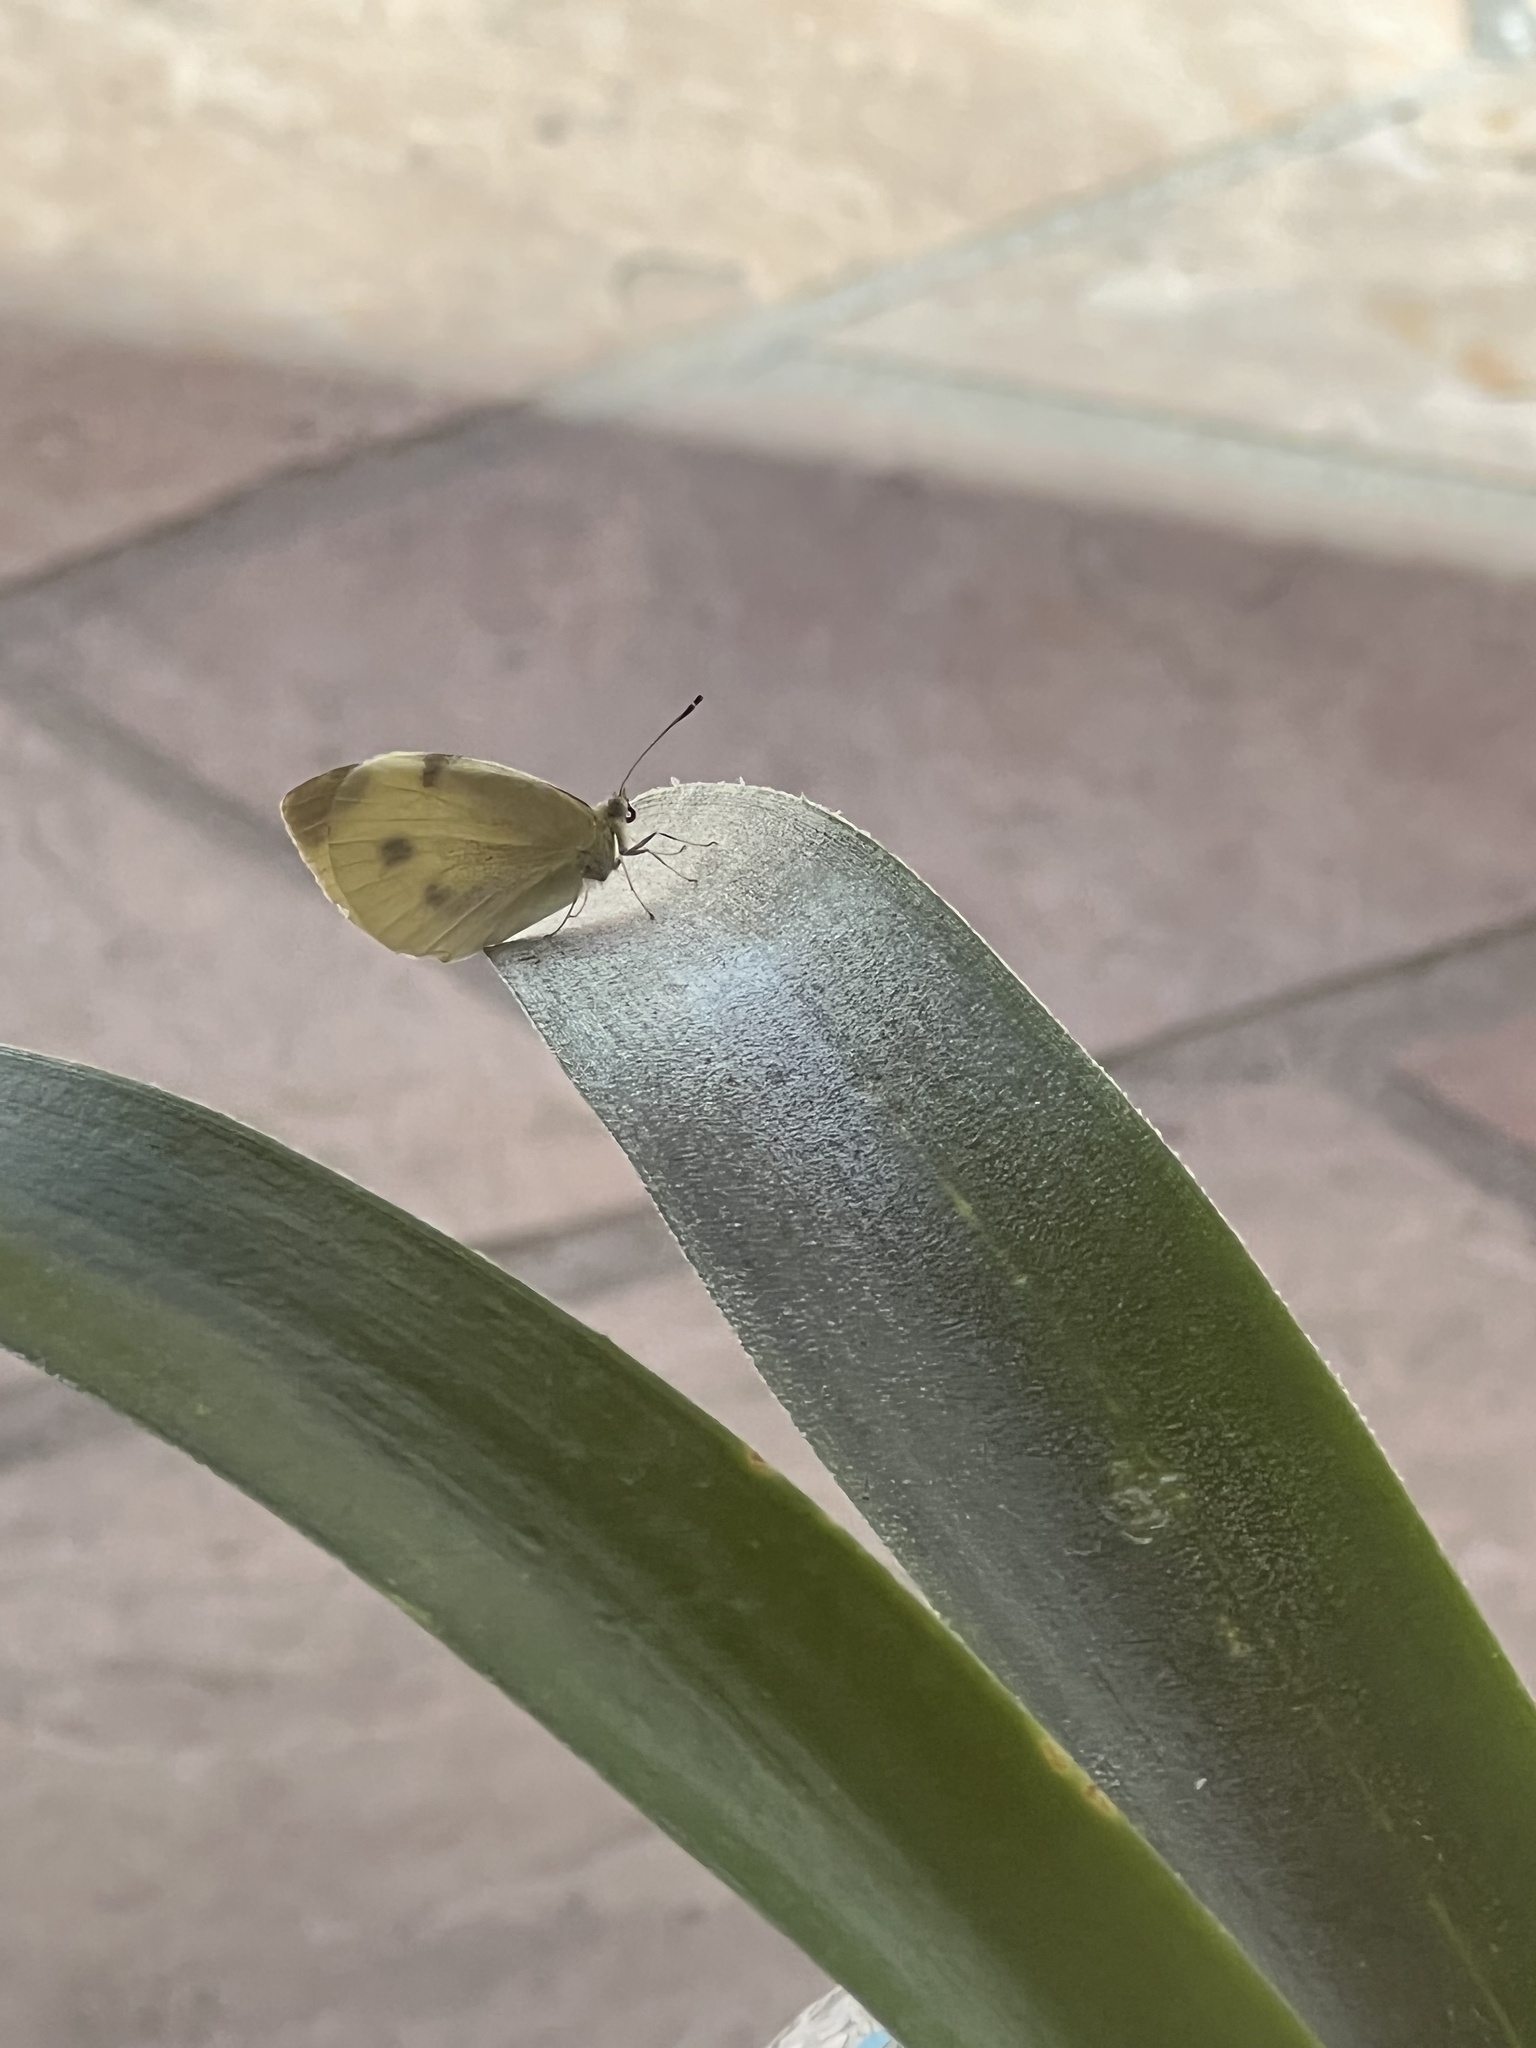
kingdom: Animalia
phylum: Arthropoda
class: Insecta
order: Lepidoptera
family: Pieridae
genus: Pieris
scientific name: Pieris rapae
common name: Small white
